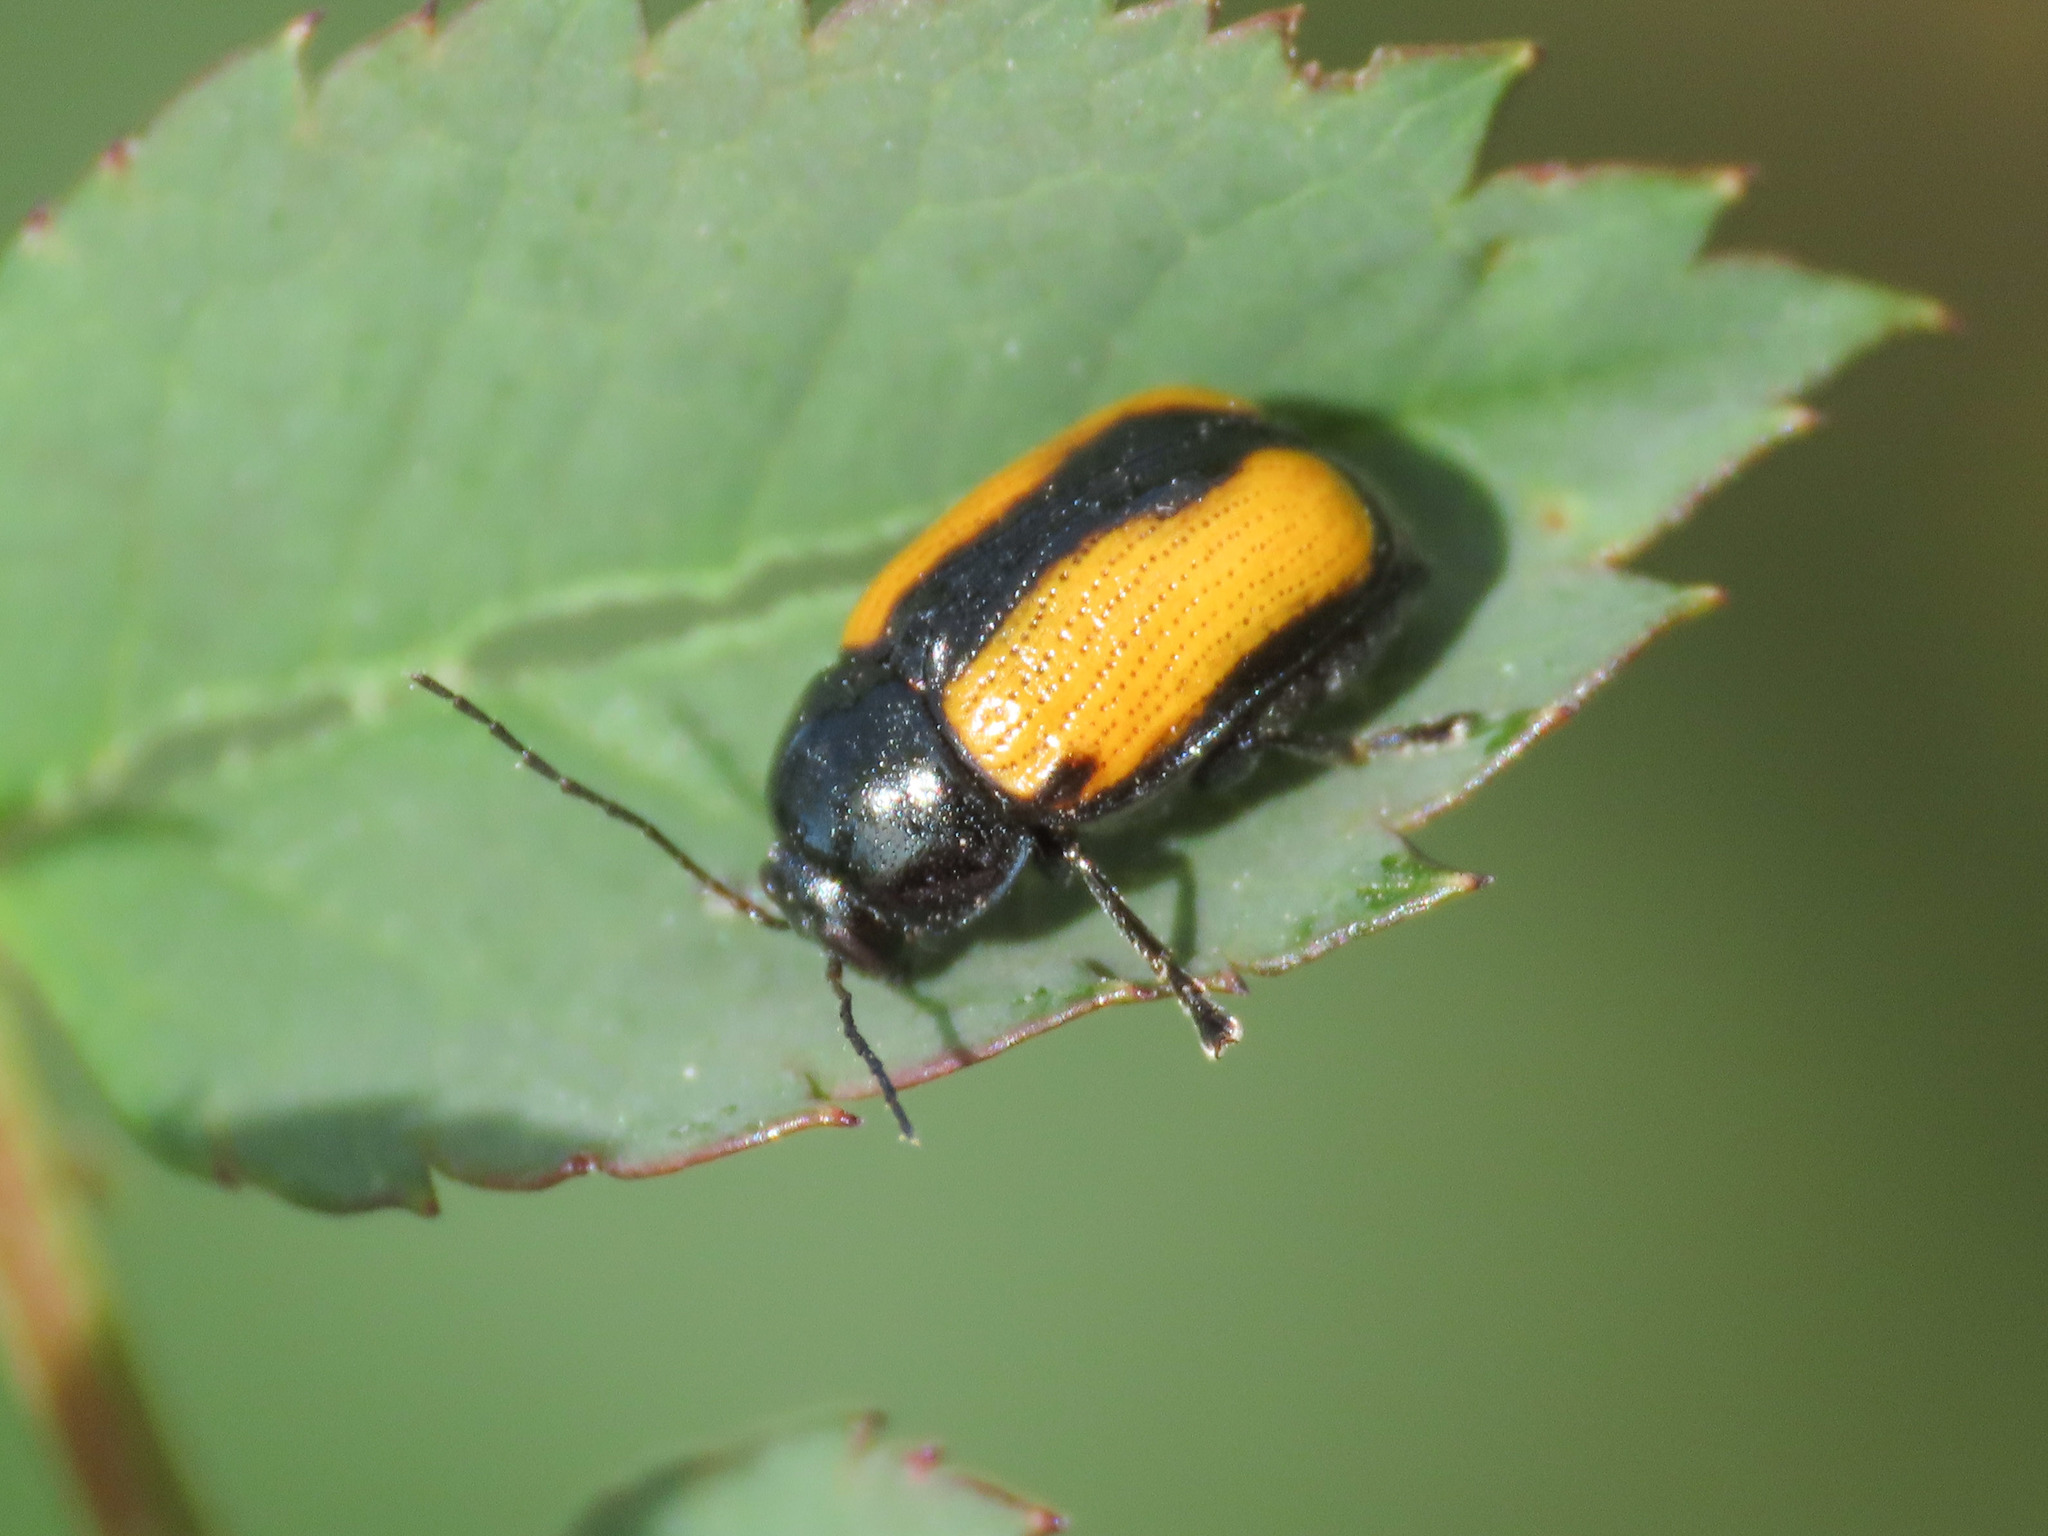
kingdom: Animalia
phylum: Arthropoda
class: Insecta
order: Coleoptera
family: Chrysomelidae
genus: Cryptocephalus
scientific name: Cryptocephalus marginatus
